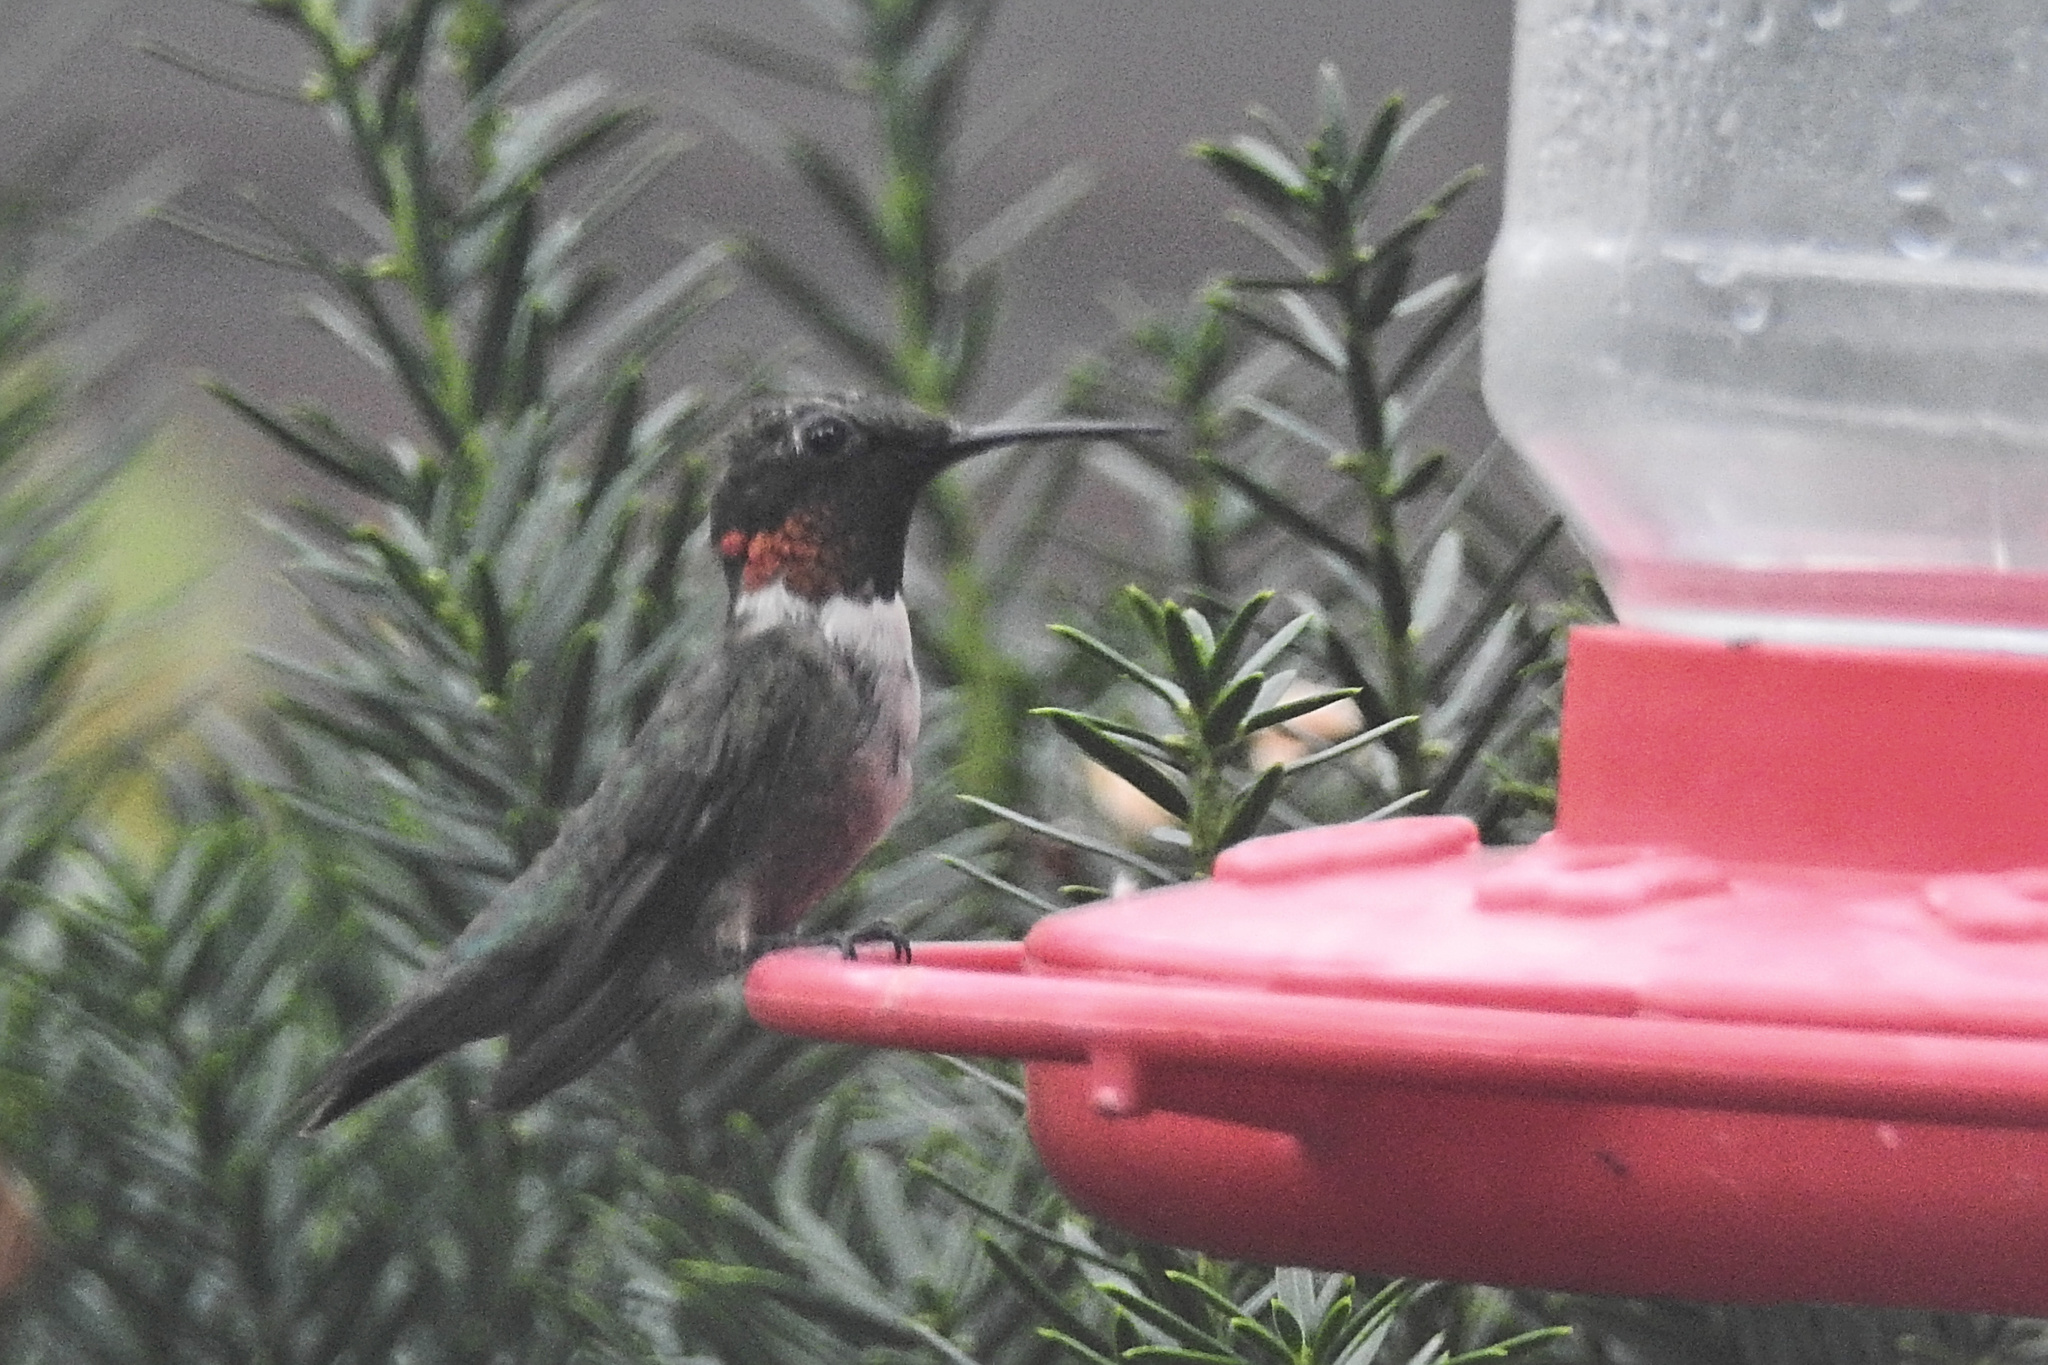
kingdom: Animalia
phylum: Chordata
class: Aves
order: Apodiformes
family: Trochilidae
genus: Archilochus
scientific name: Archilochus colubris
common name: Ruby-throated hummingbird
